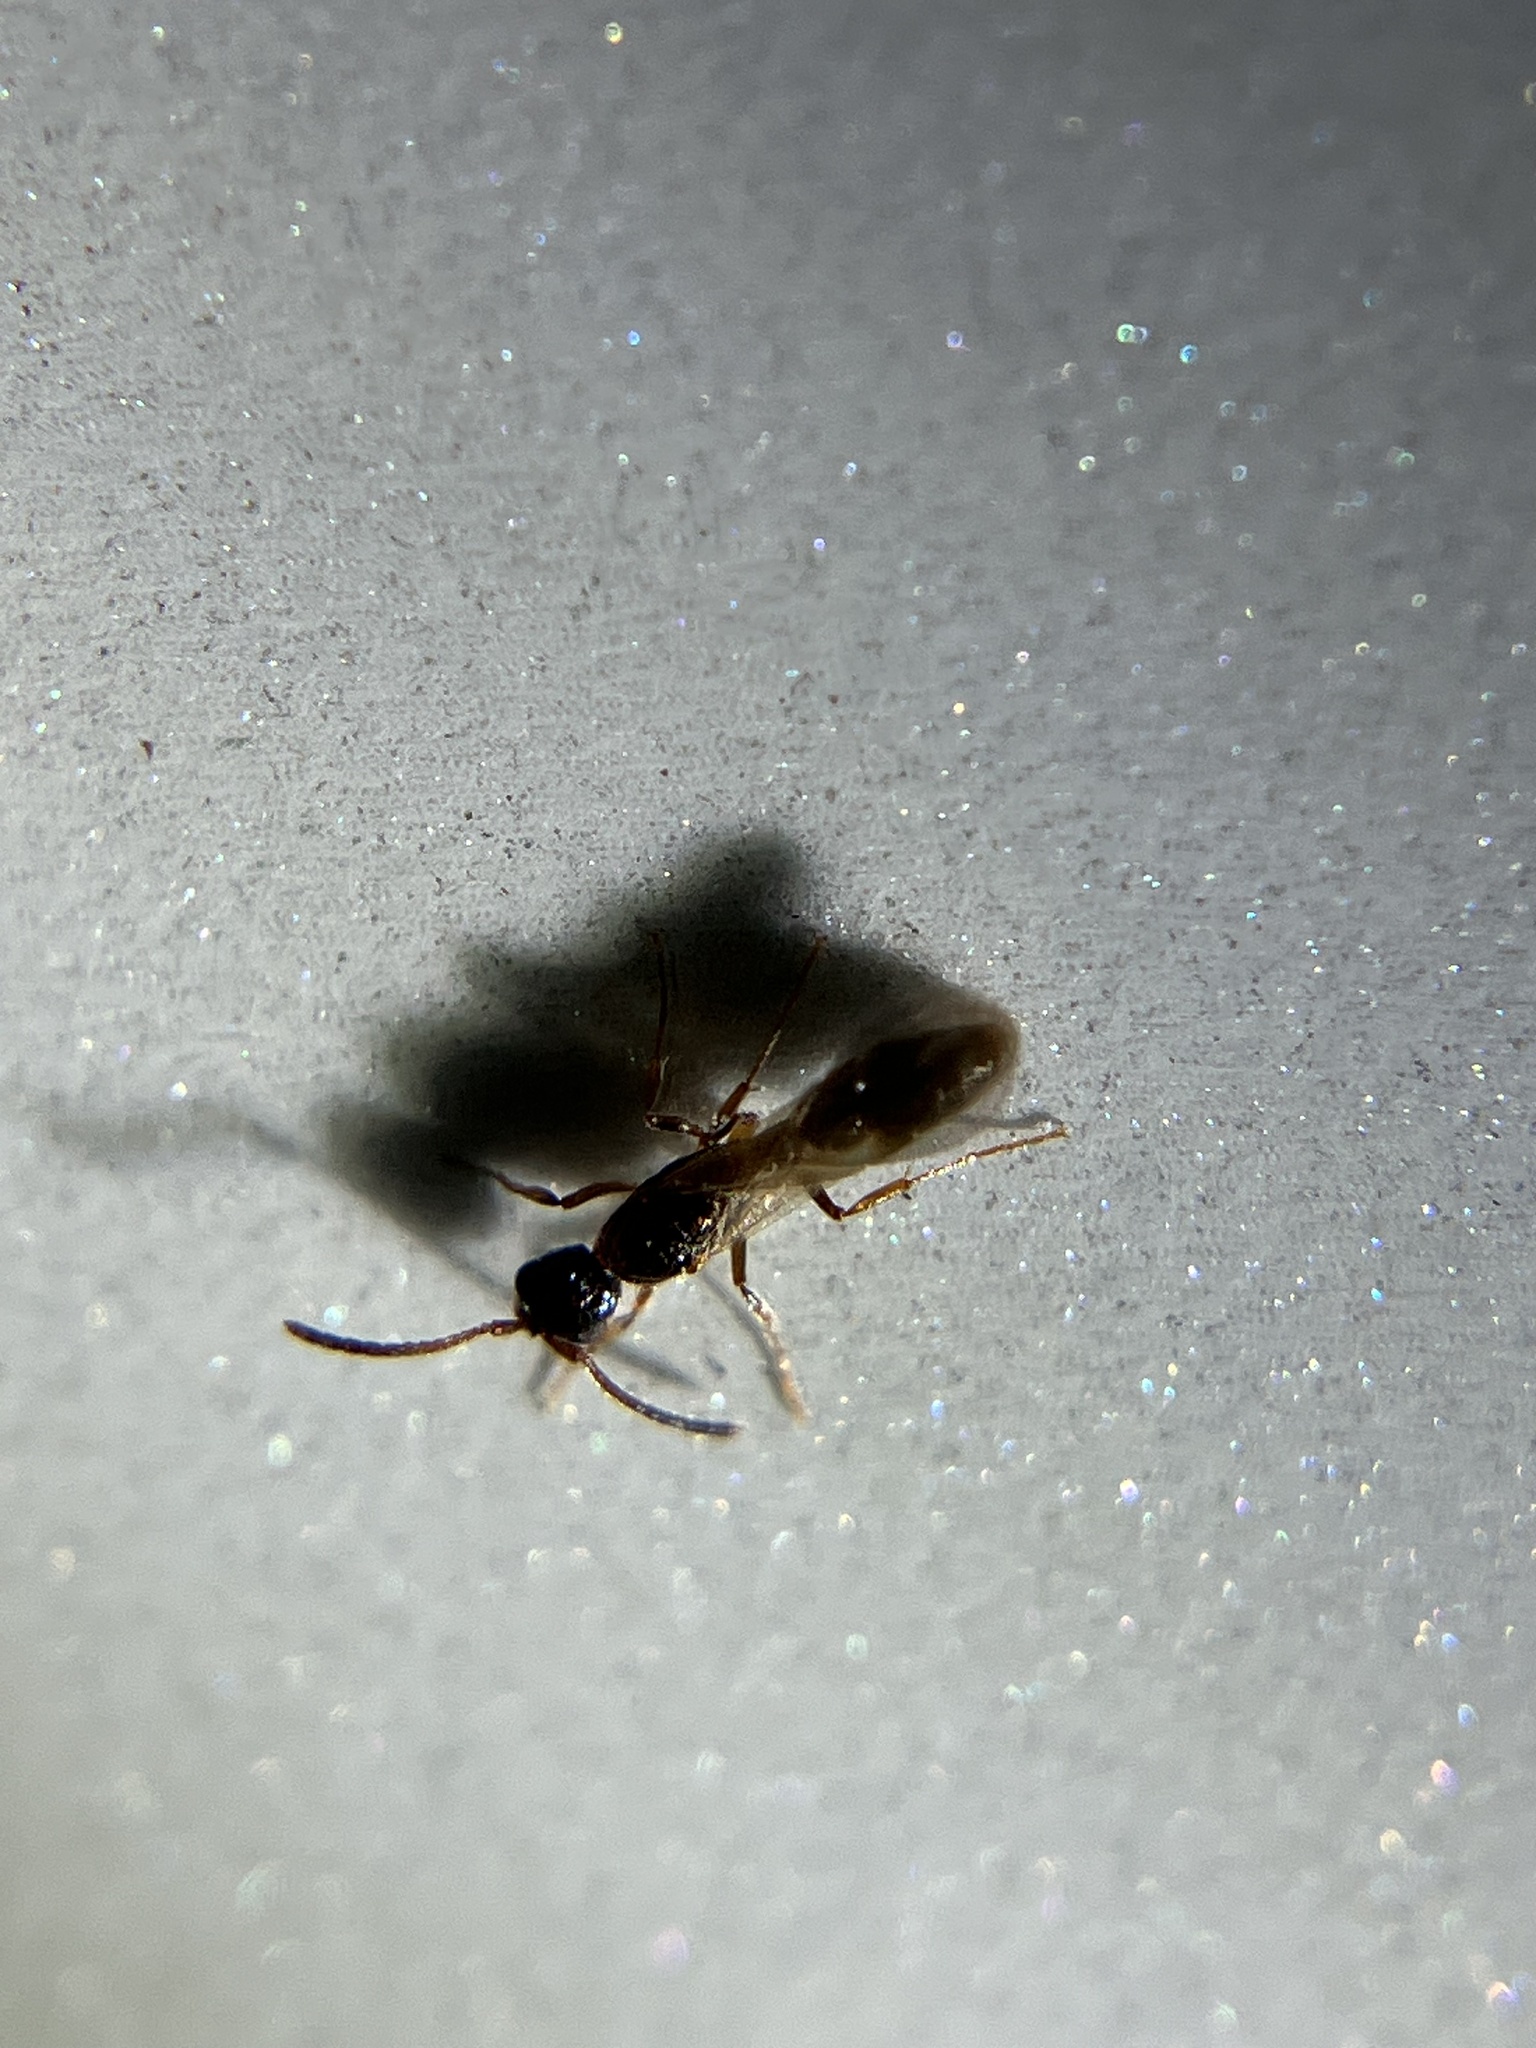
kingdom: Animalia
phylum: Arthropoda
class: Insecta
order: Hymenoptera
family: Formicidae
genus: Lioponera
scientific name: Lioponera
